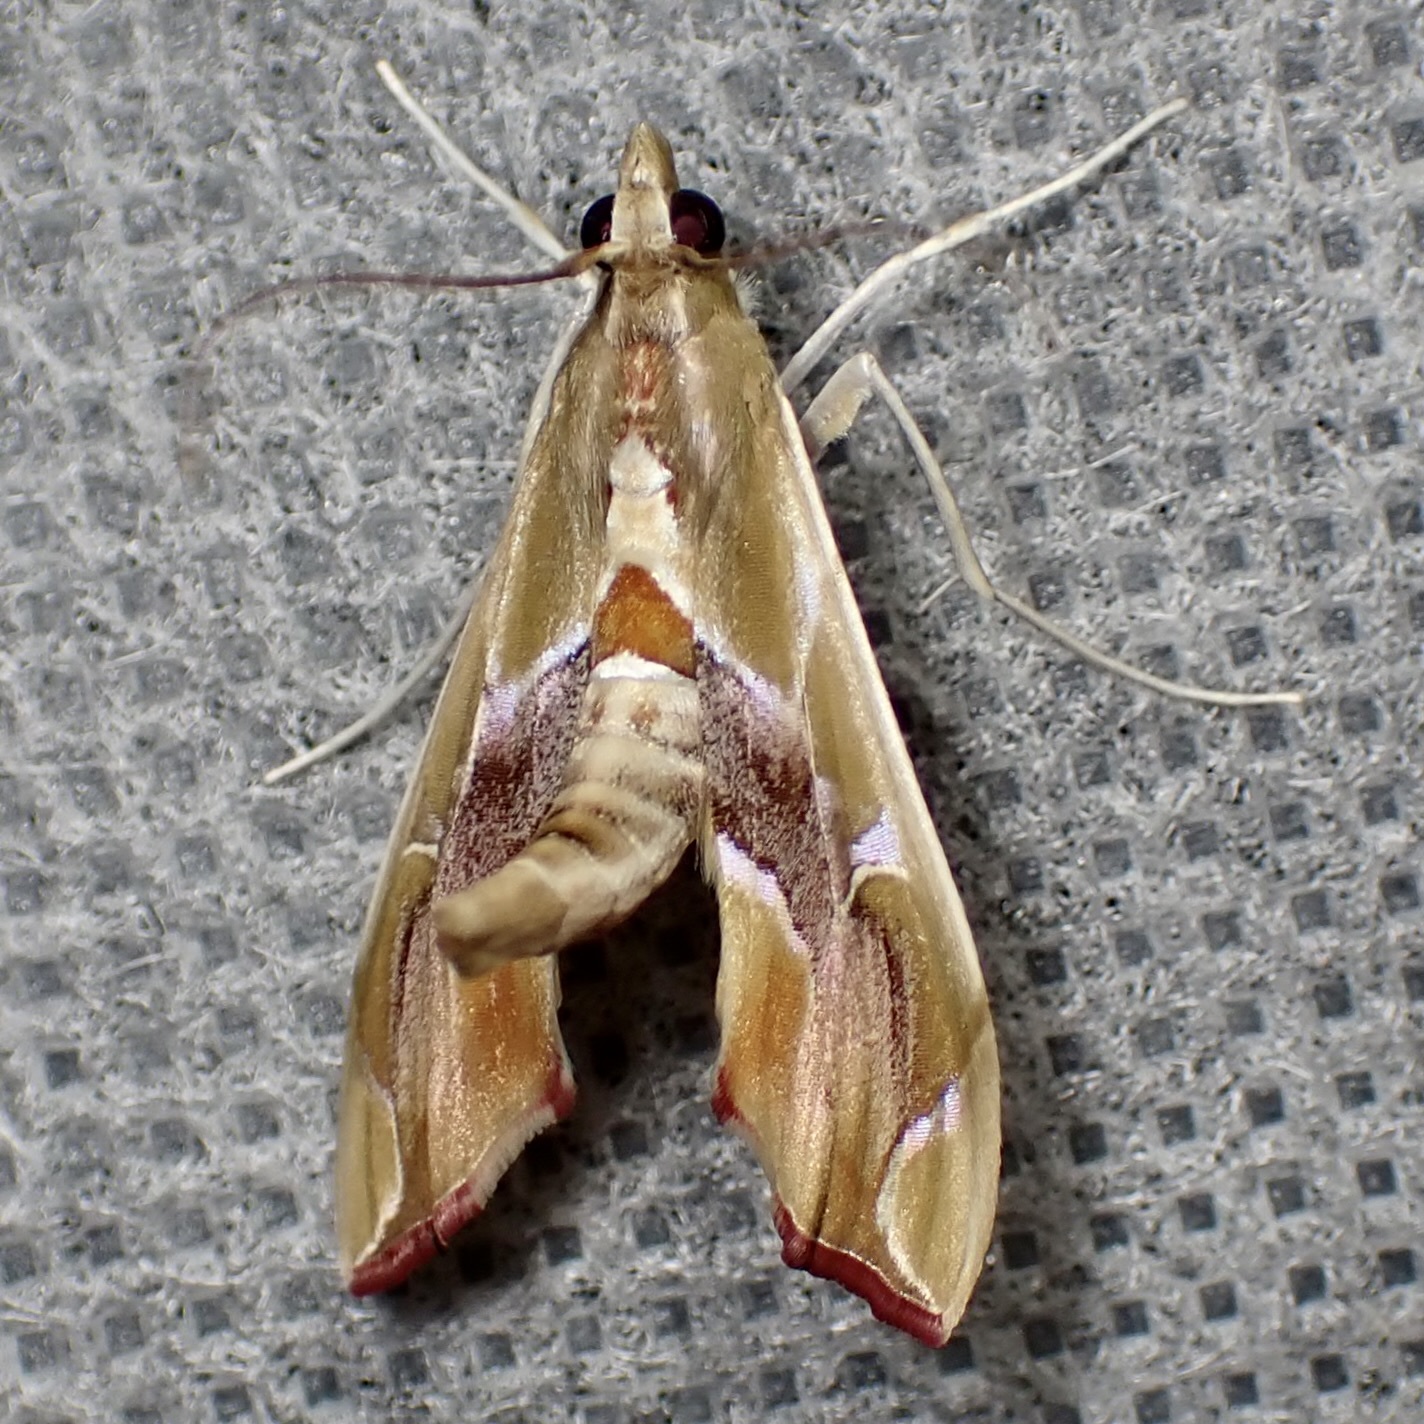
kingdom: Animalia
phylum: Arthropoda
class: Insecta
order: Lepidoptera
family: Crambidae
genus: Agathodes
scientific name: Agathodes monstralis
